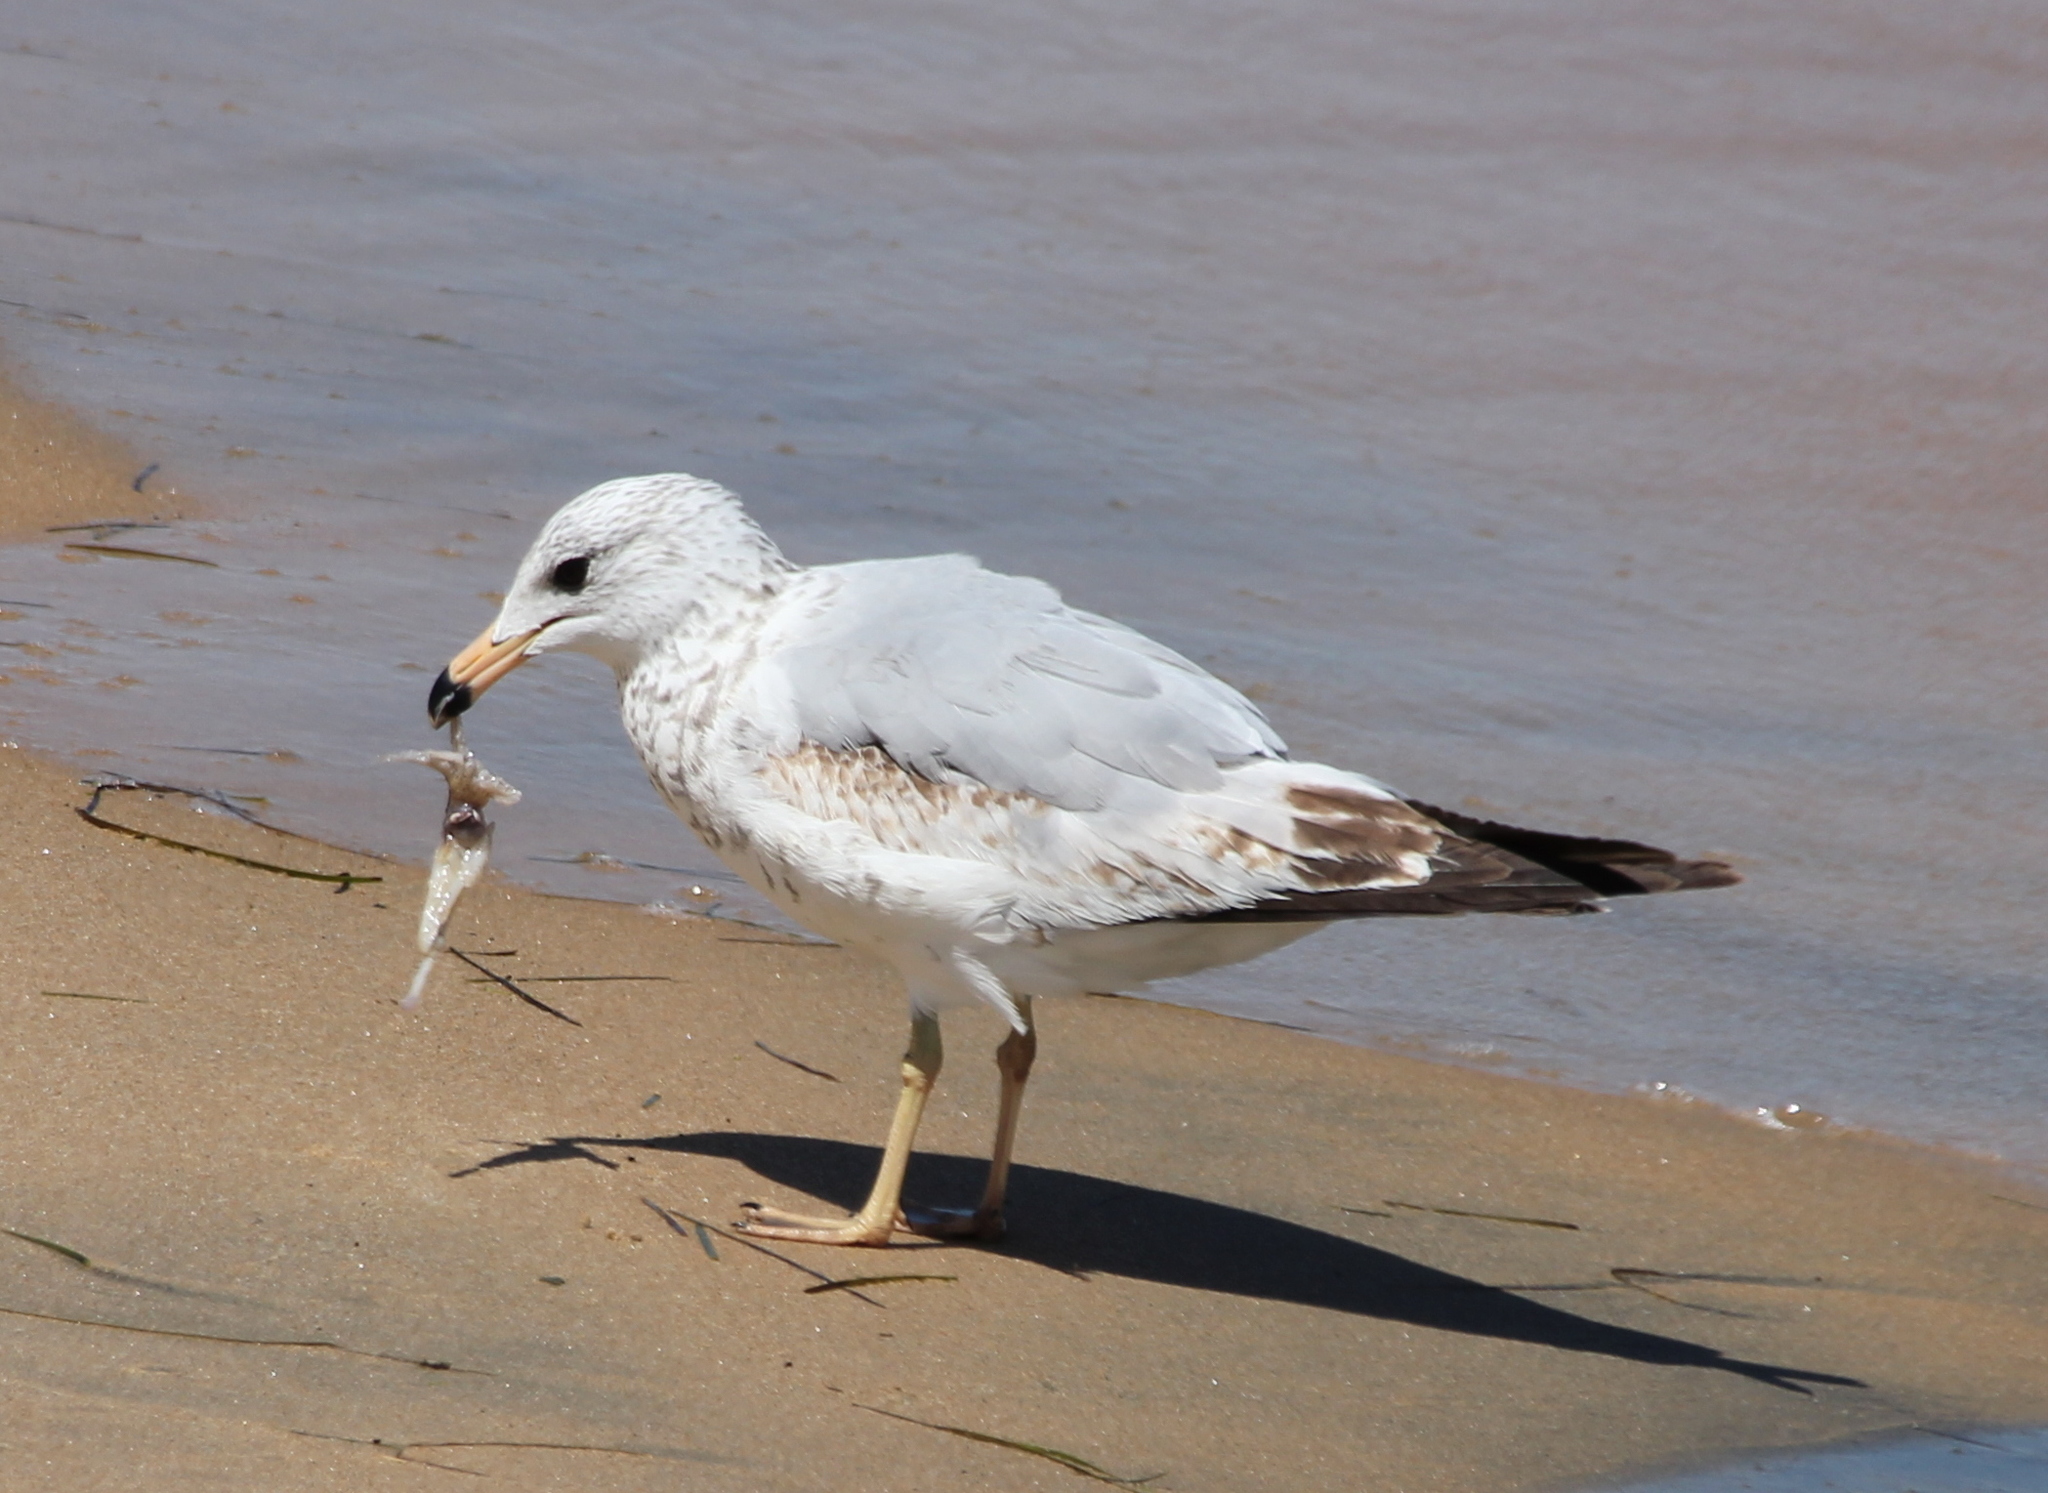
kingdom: Animalia
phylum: Chordata
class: Aves
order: Charadriiformes
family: Laridae
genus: Larus
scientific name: Larus delawarensis
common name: Ring-billed gull
